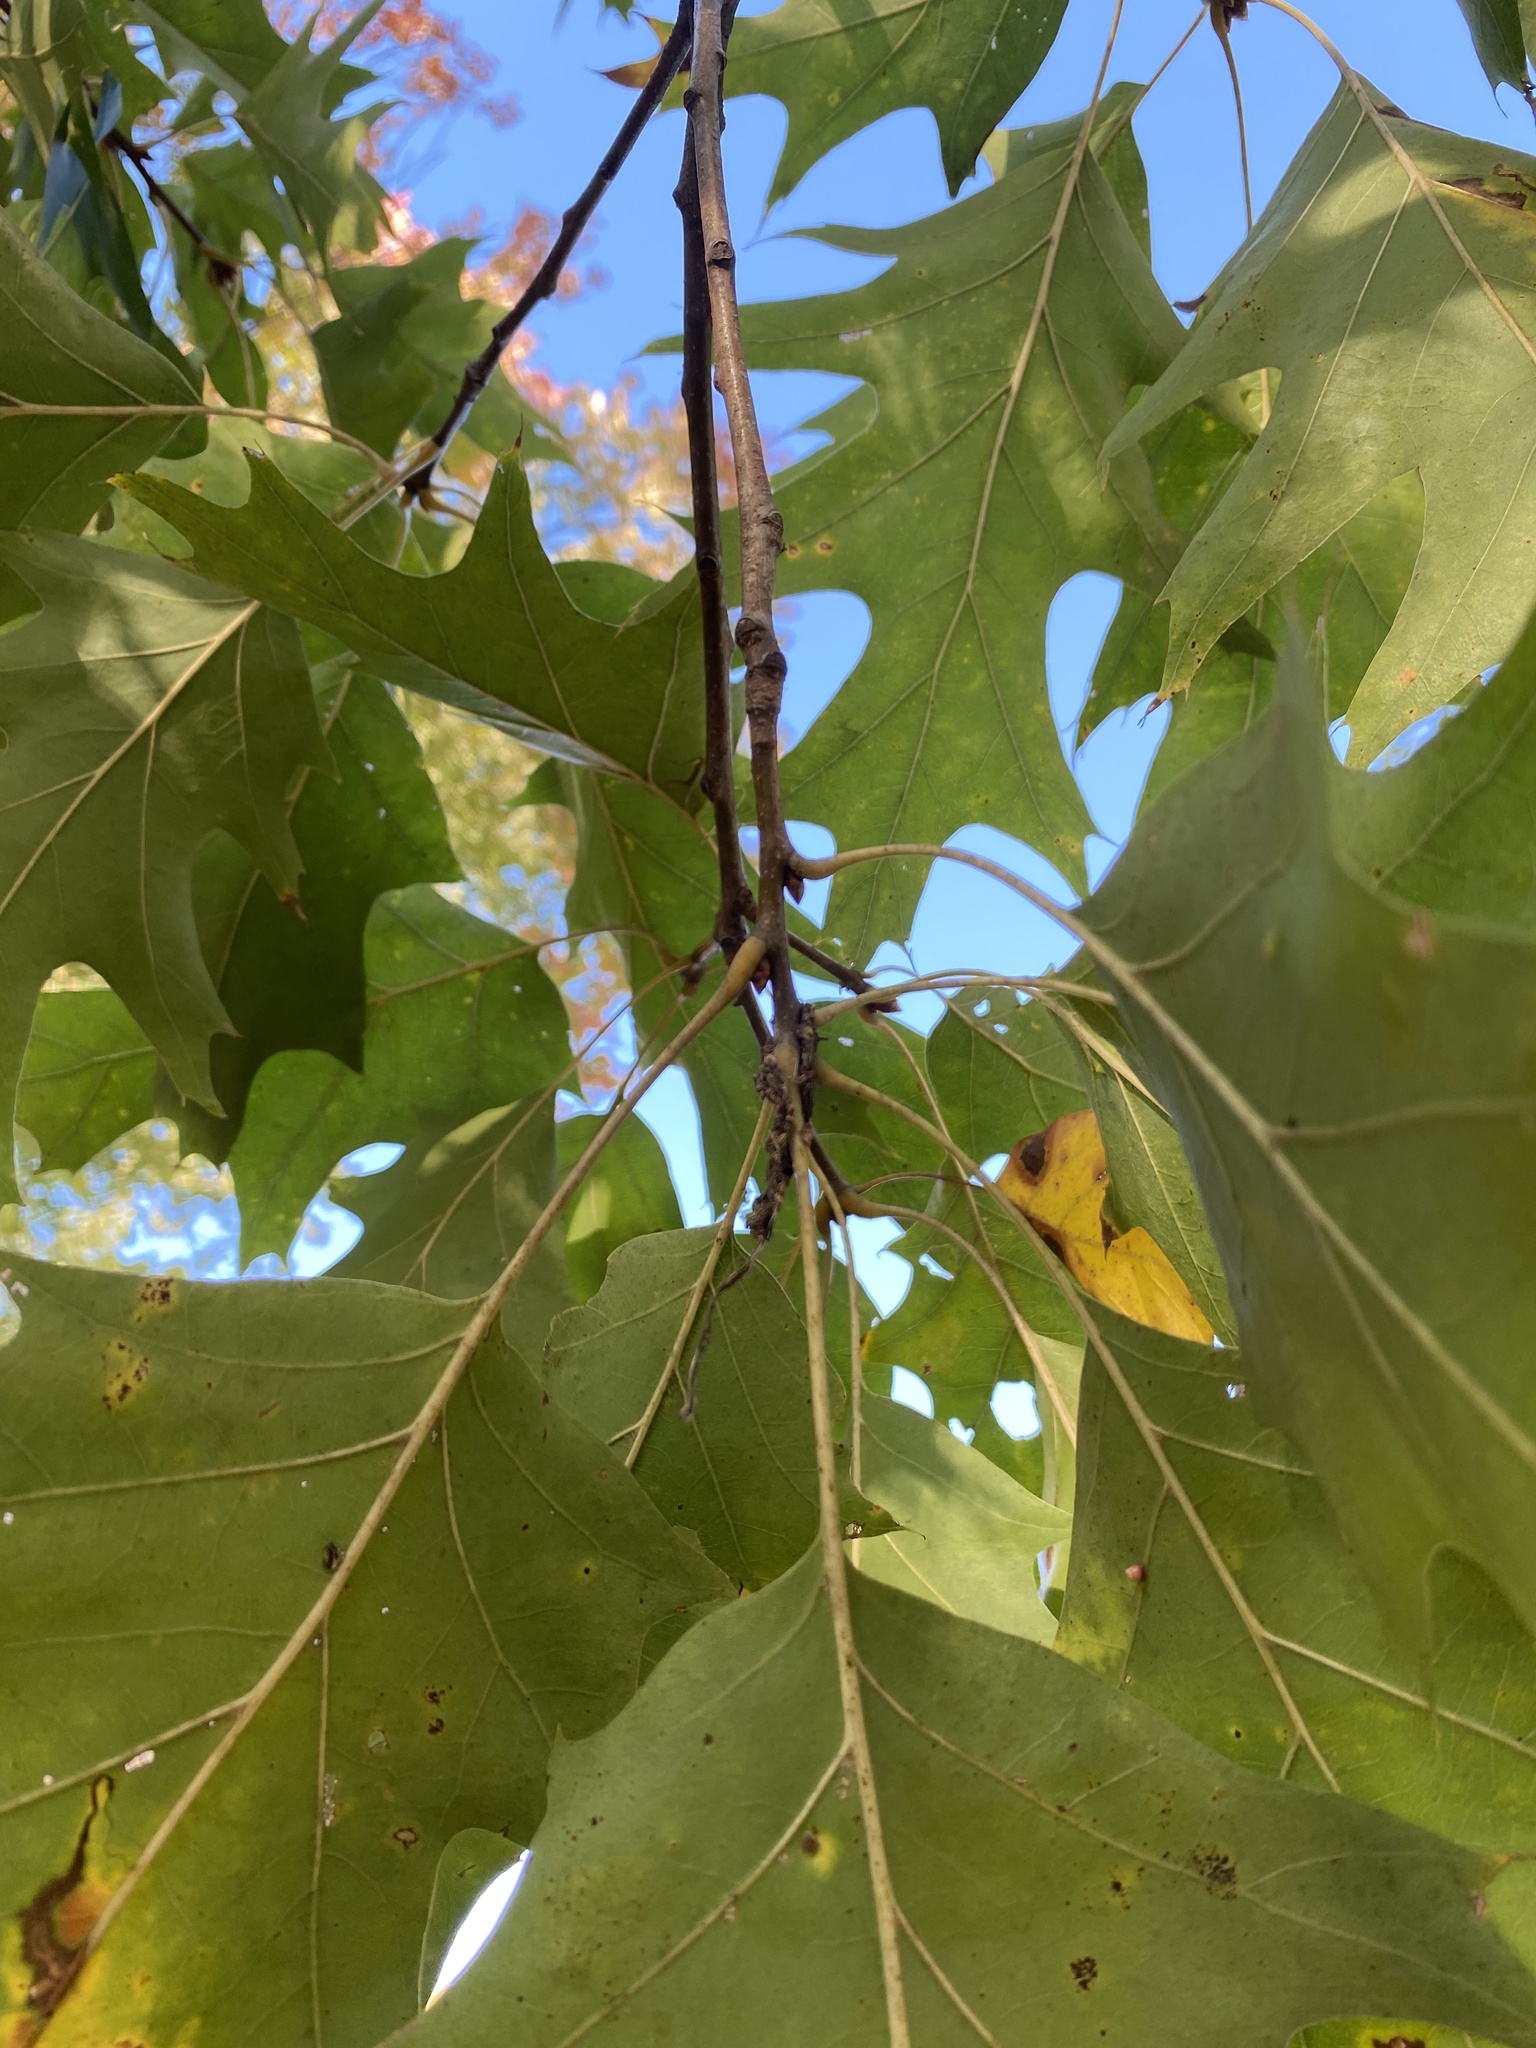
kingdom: Plantae
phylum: Tracheophyta
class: Magnoliopsida
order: Fagales
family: Fagaceae
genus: Quercus
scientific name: Quercus rubra
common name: Red oak
